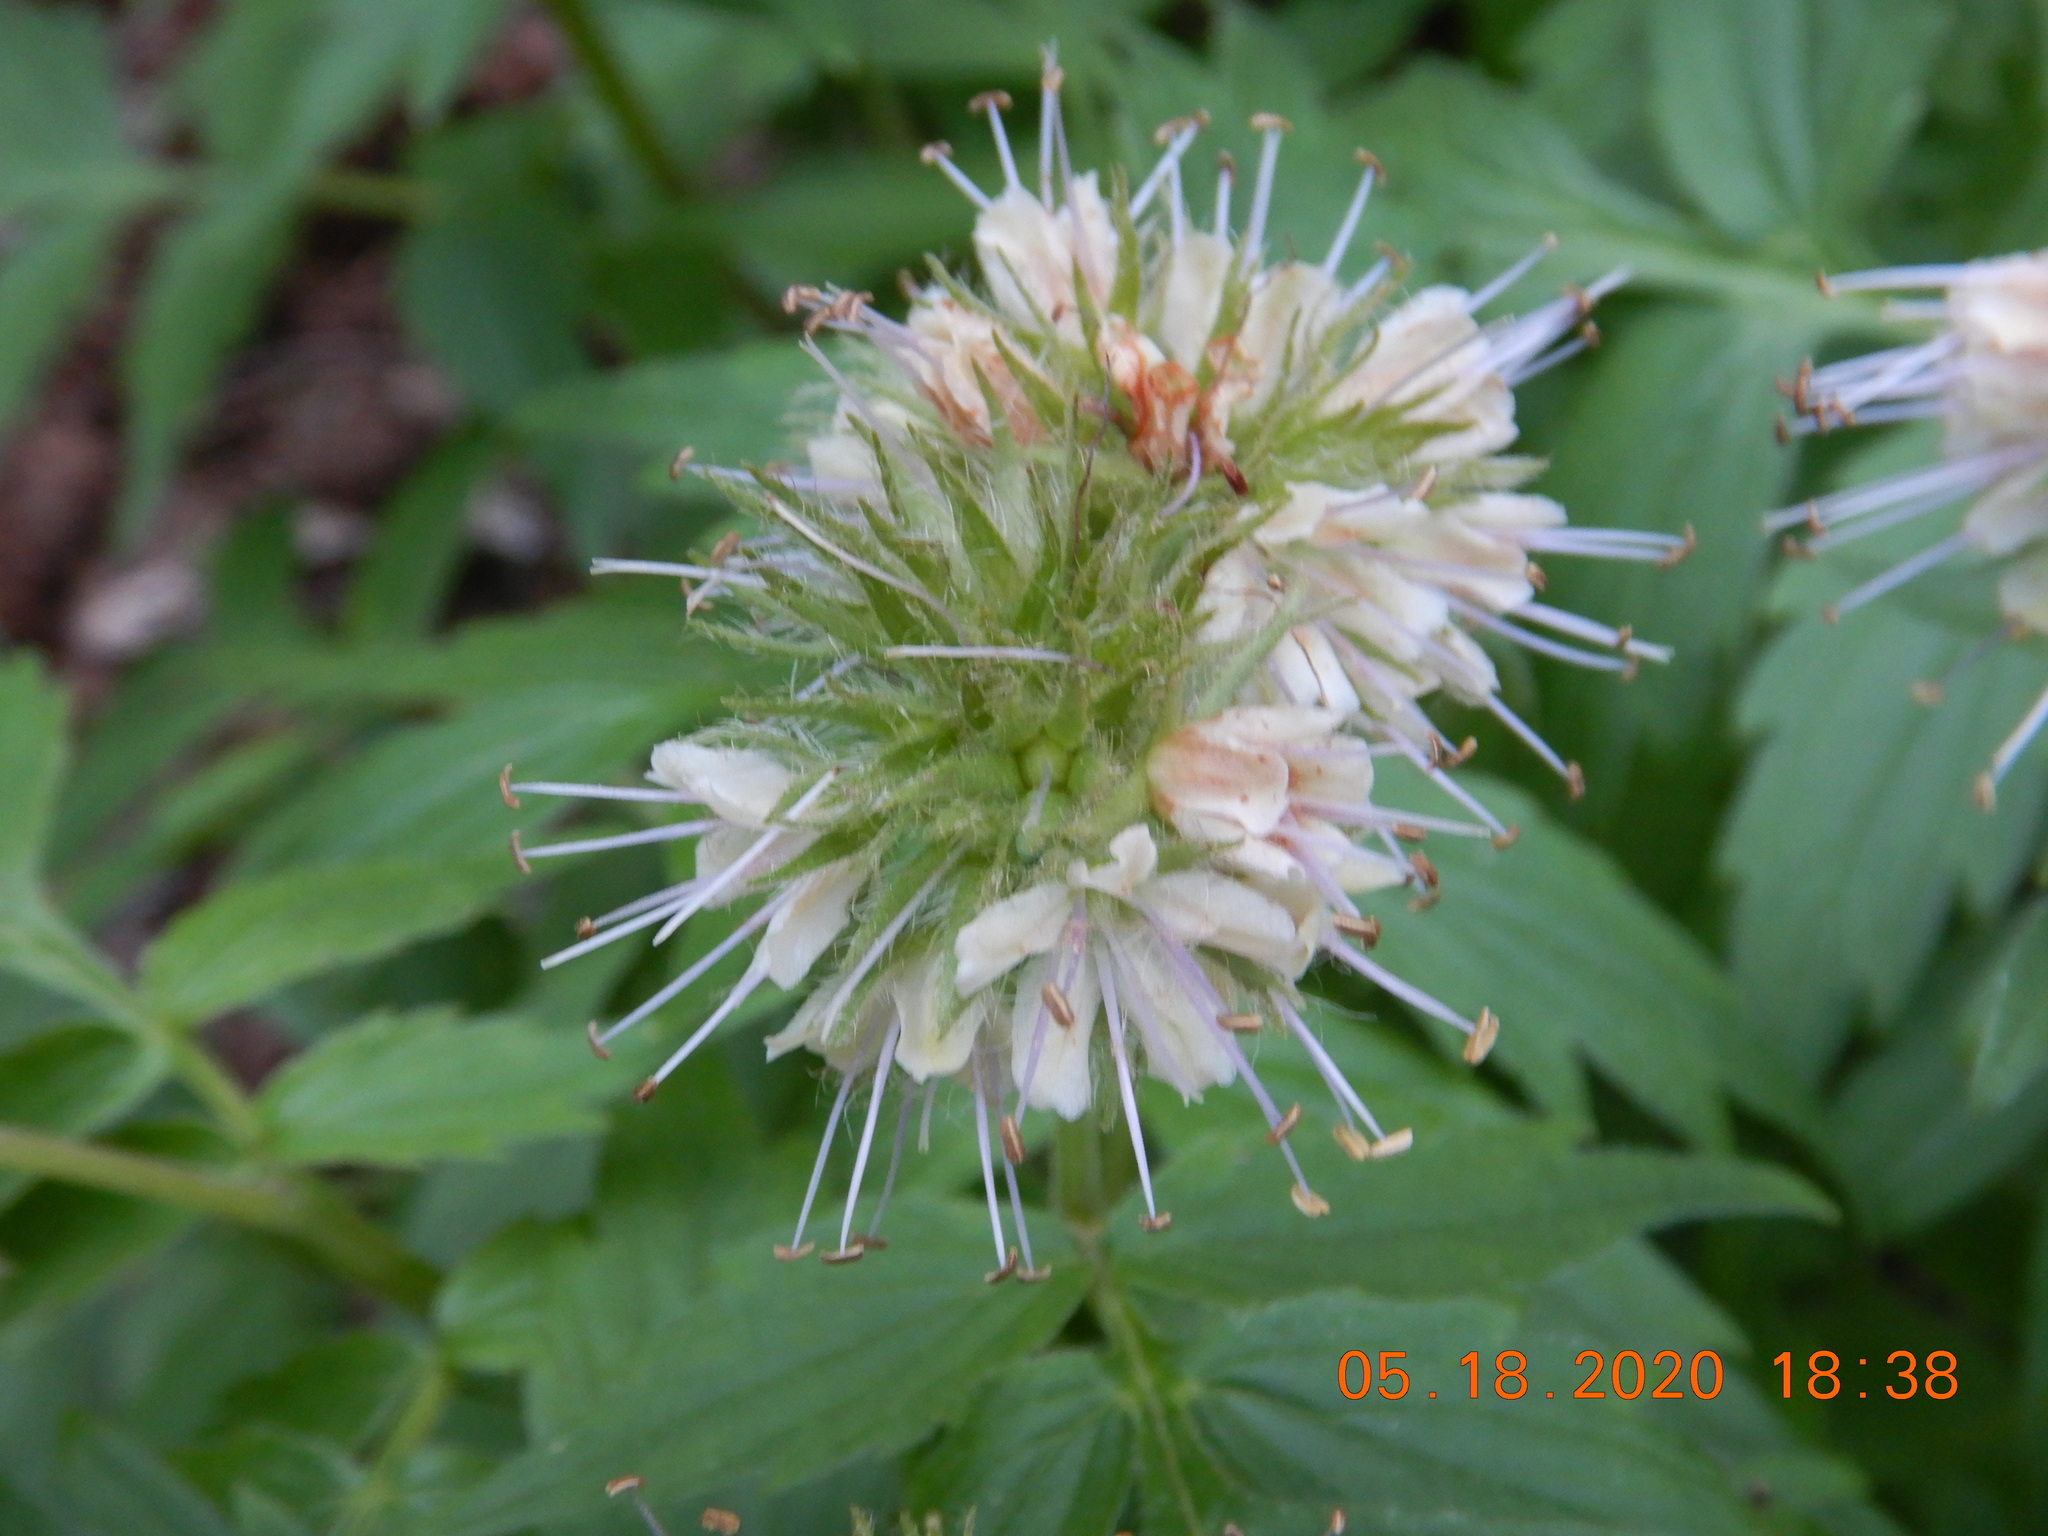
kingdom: Plantae
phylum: Tracheophyta
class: Magnoliopsida
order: Boraginales
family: Hydrophyllaceae
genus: Hydrophyllum
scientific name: Hydrophyllum fendleri
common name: Fendler's waterleaf
